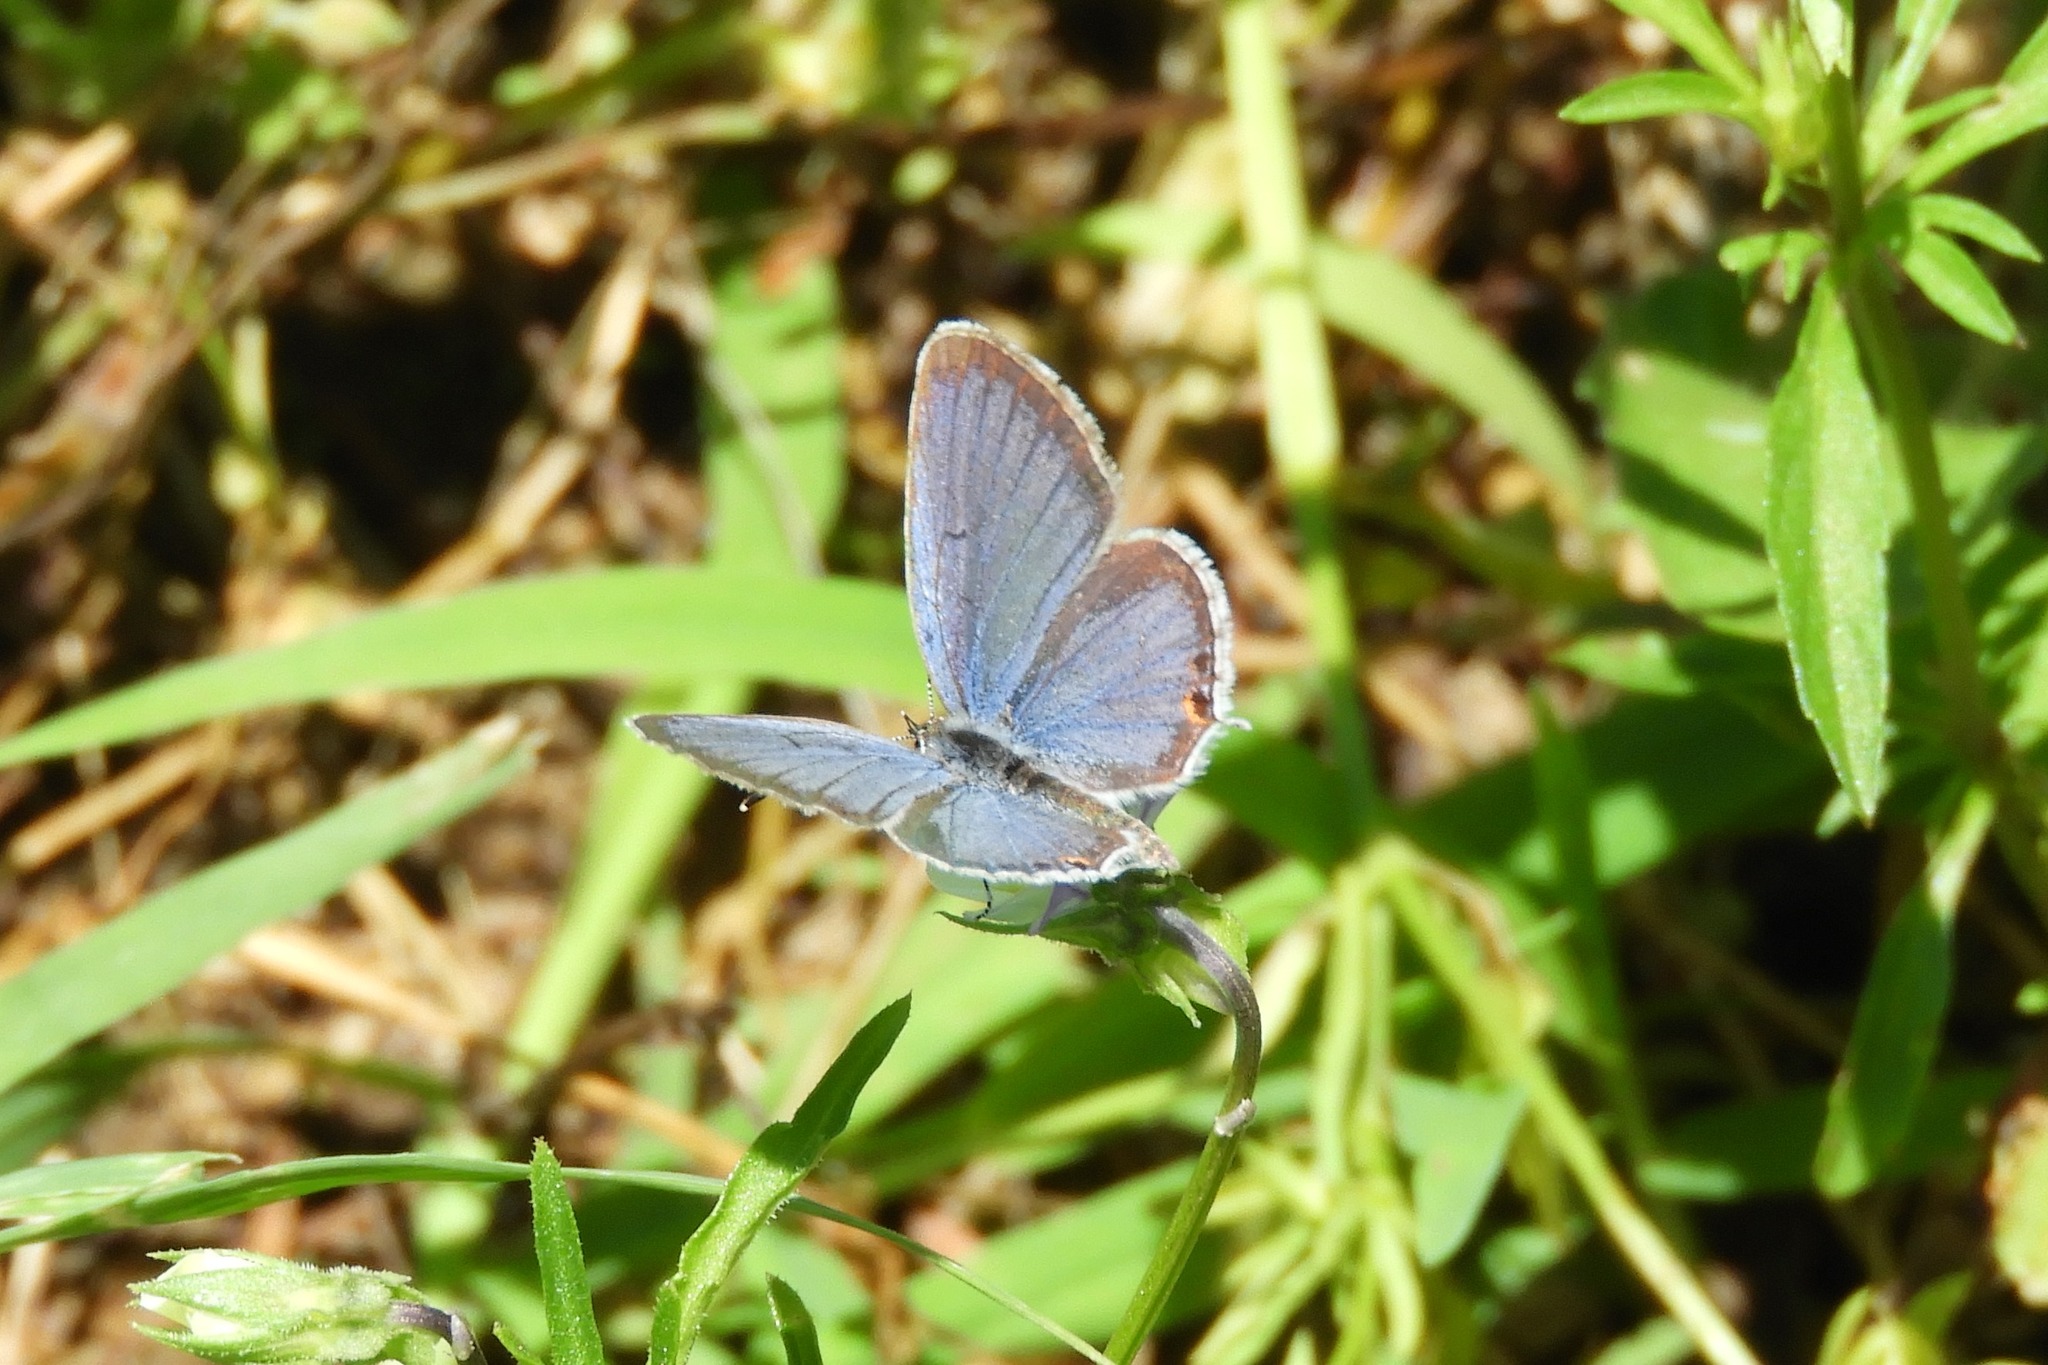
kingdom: Animalia
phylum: Arthropoda
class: Insecta
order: Lepidoptera
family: Lycaenidae
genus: Elkalyce
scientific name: Elkalyce comyntas
